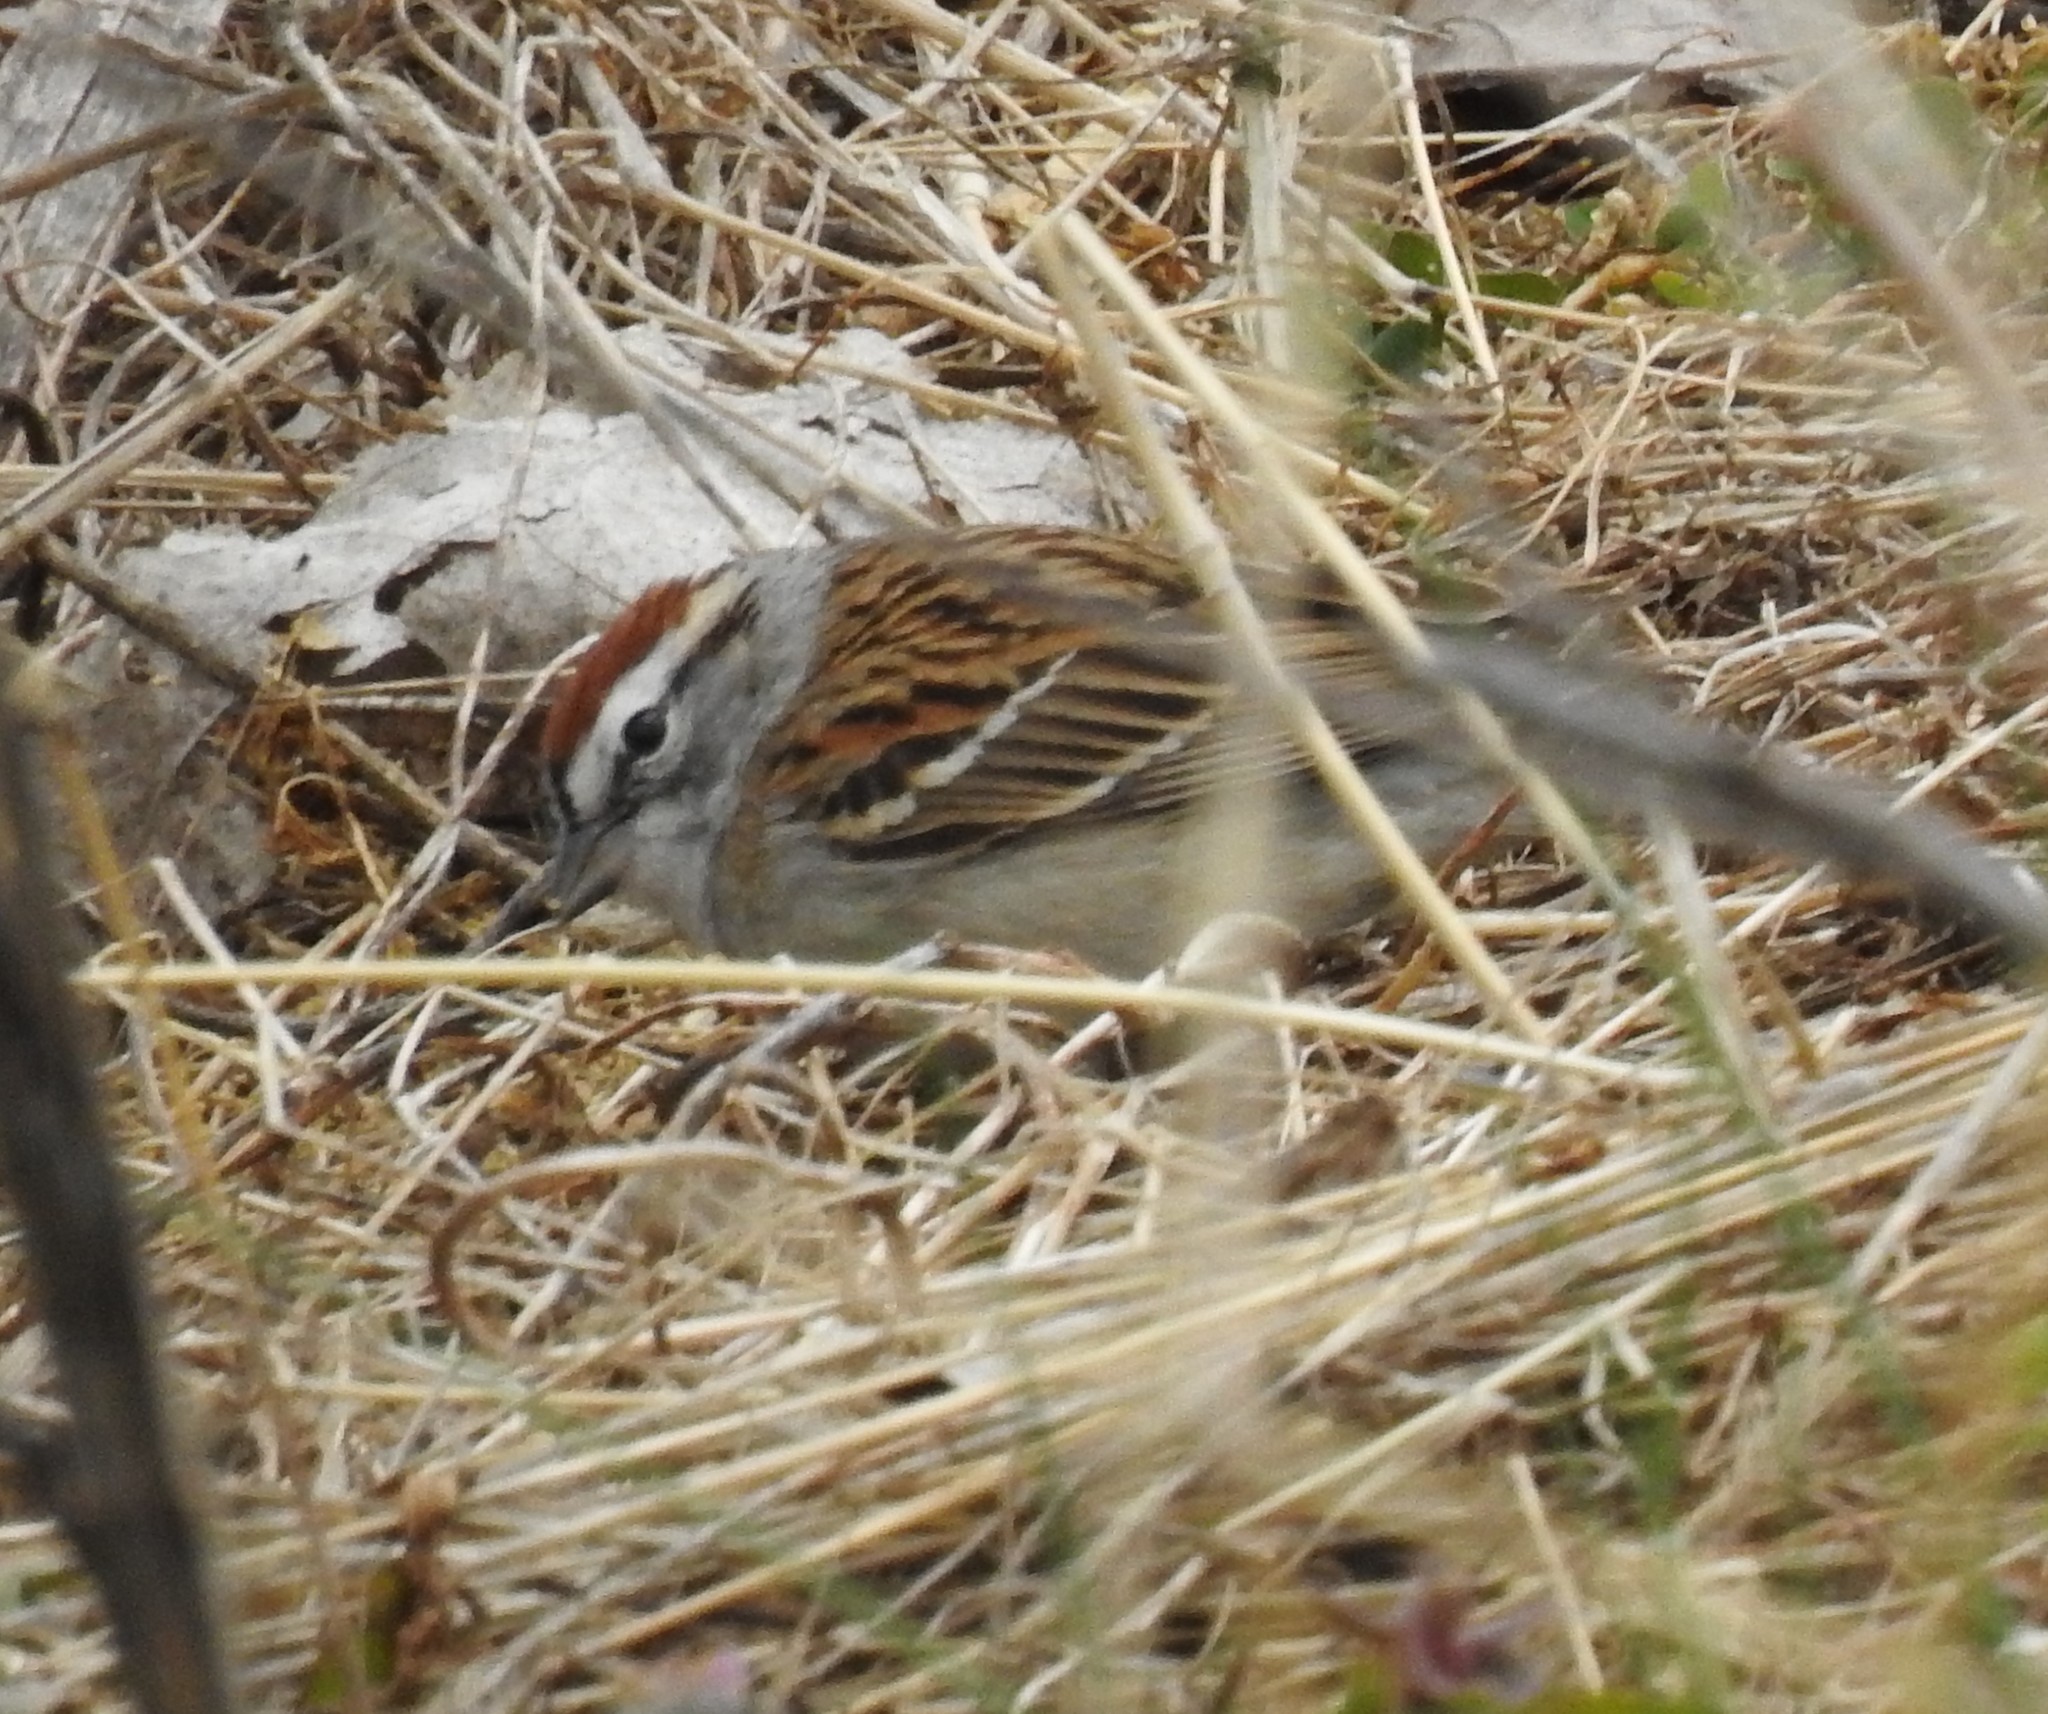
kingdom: Animalia
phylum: Chordata
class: Aves
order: Passeriformes
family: Passerellidae
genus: Spizella
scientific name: Spizella passerina
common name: Chipping sparrow
